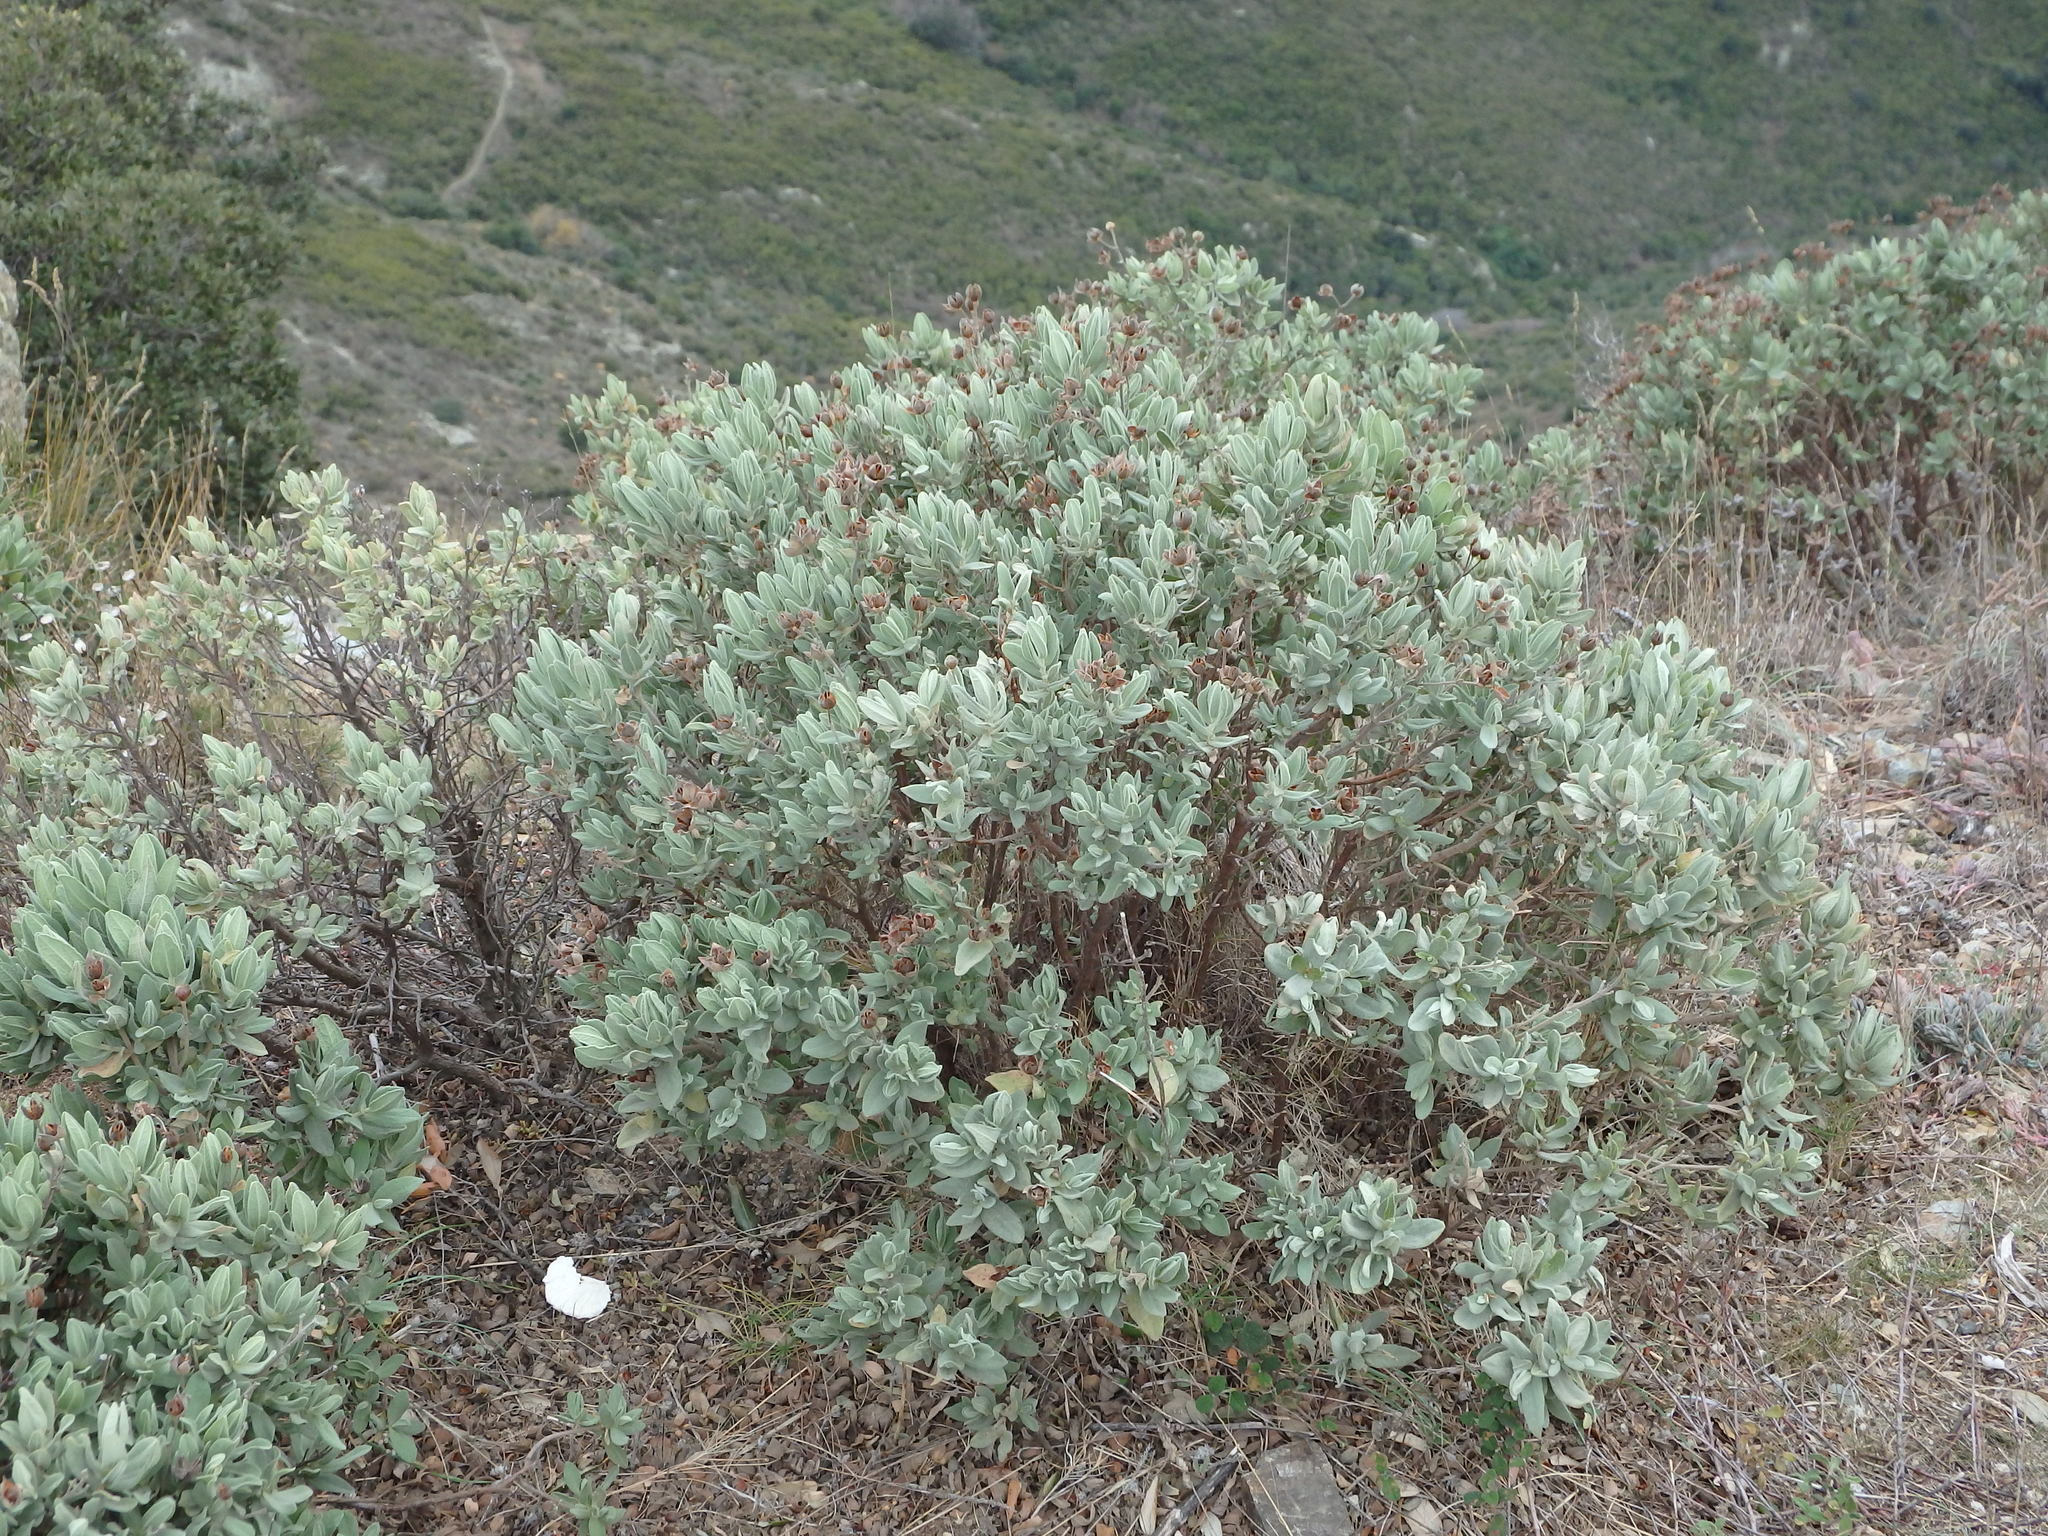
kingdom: Plantae
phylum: Tracheophyta
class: Magnoliopsida
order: Malvales
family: Cistaceae
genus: Cistus
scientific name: Cistus albidus
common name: White-leaf rock-rose
